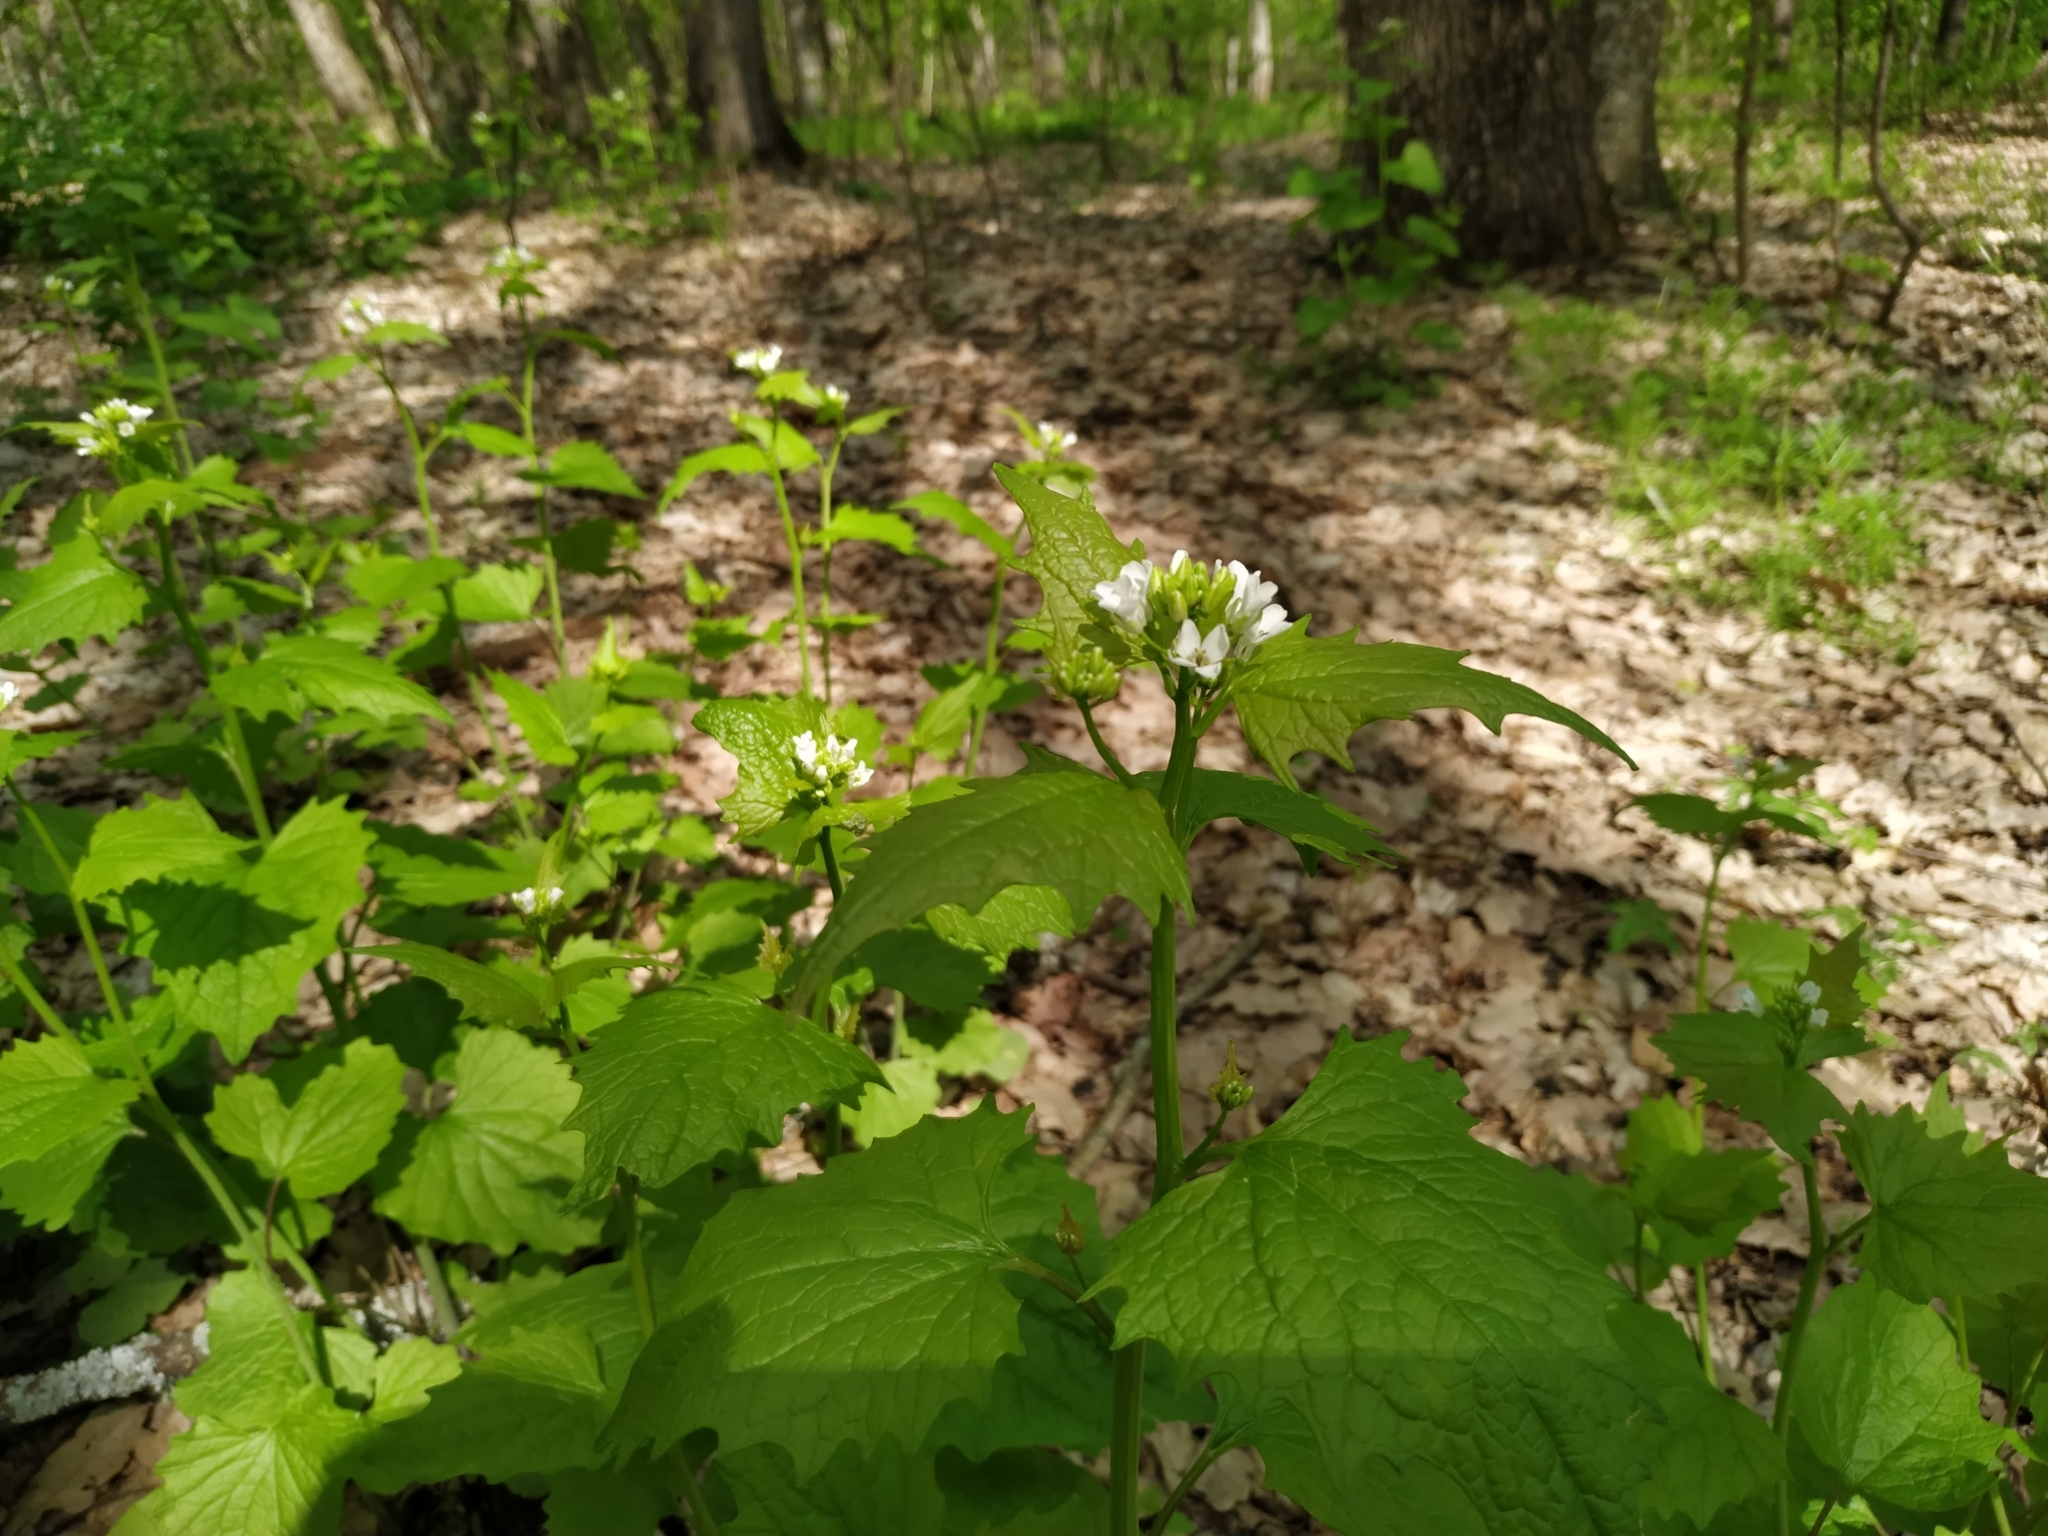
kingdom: Plantae
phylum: Tracheophyta
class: Magnoliopsida
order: Brassicales
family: Brassicaceae
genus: Alliaria
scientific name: Alliaria petiolata
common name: Garlic mustard
